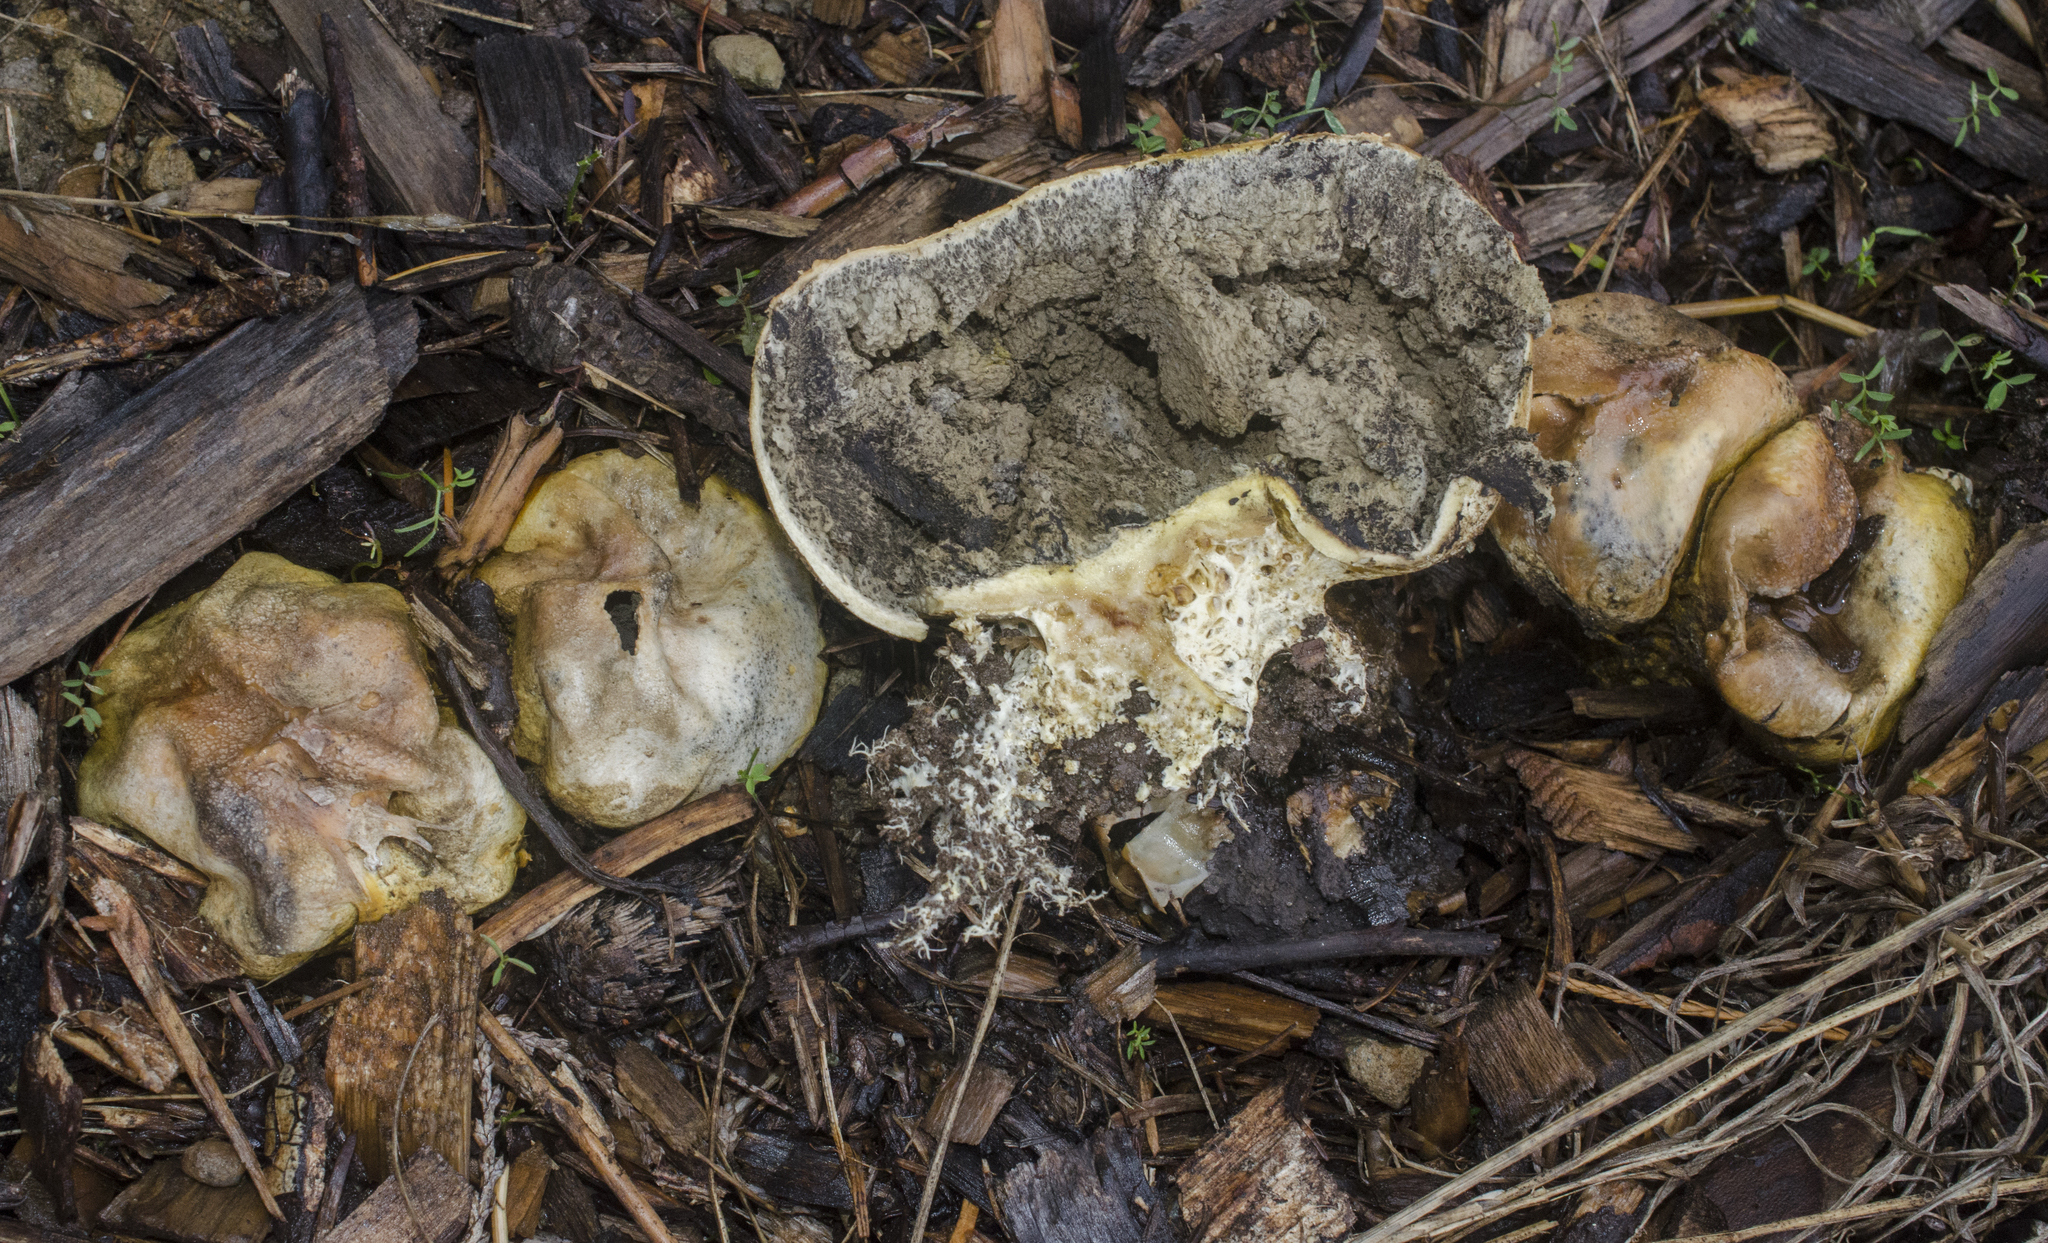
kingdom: Fungi
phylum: Basidiomycota
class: Agaricomycetes
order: Boletales
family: Sclerodermataceae
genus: Scleroderma
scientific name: Scleroderma
